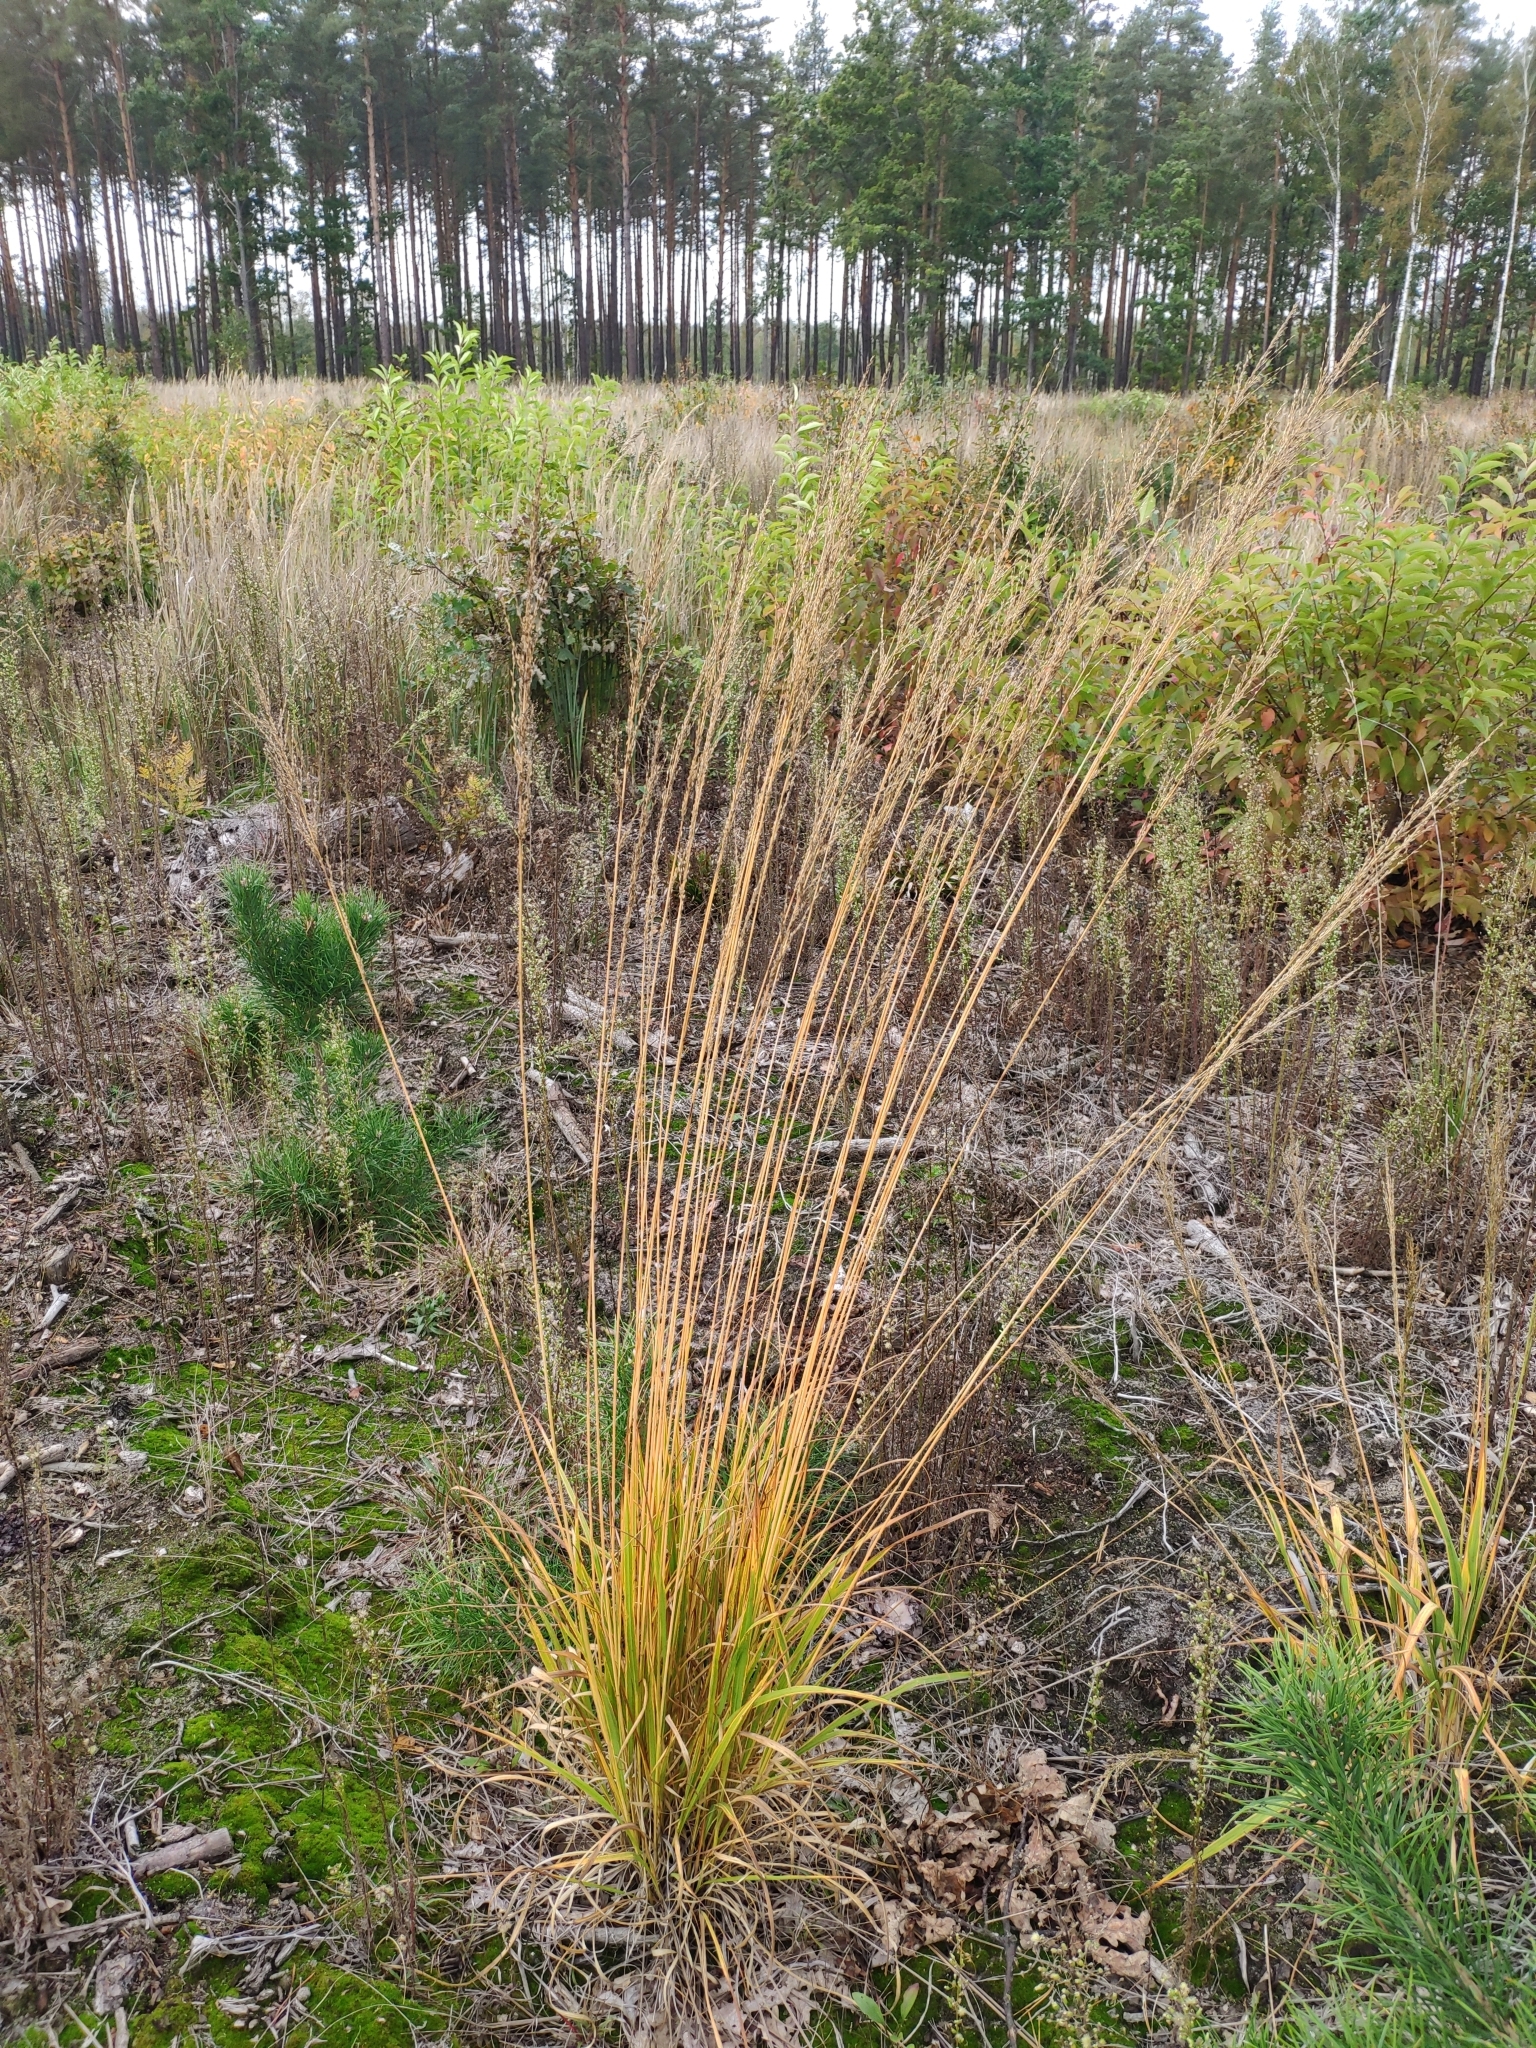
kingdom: Plantae
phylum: Tracheophyta
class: Liliopsida
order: Poales
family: Poaceae
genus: Molinia
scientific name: Molinia caerulea
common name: Purple moor-grass
